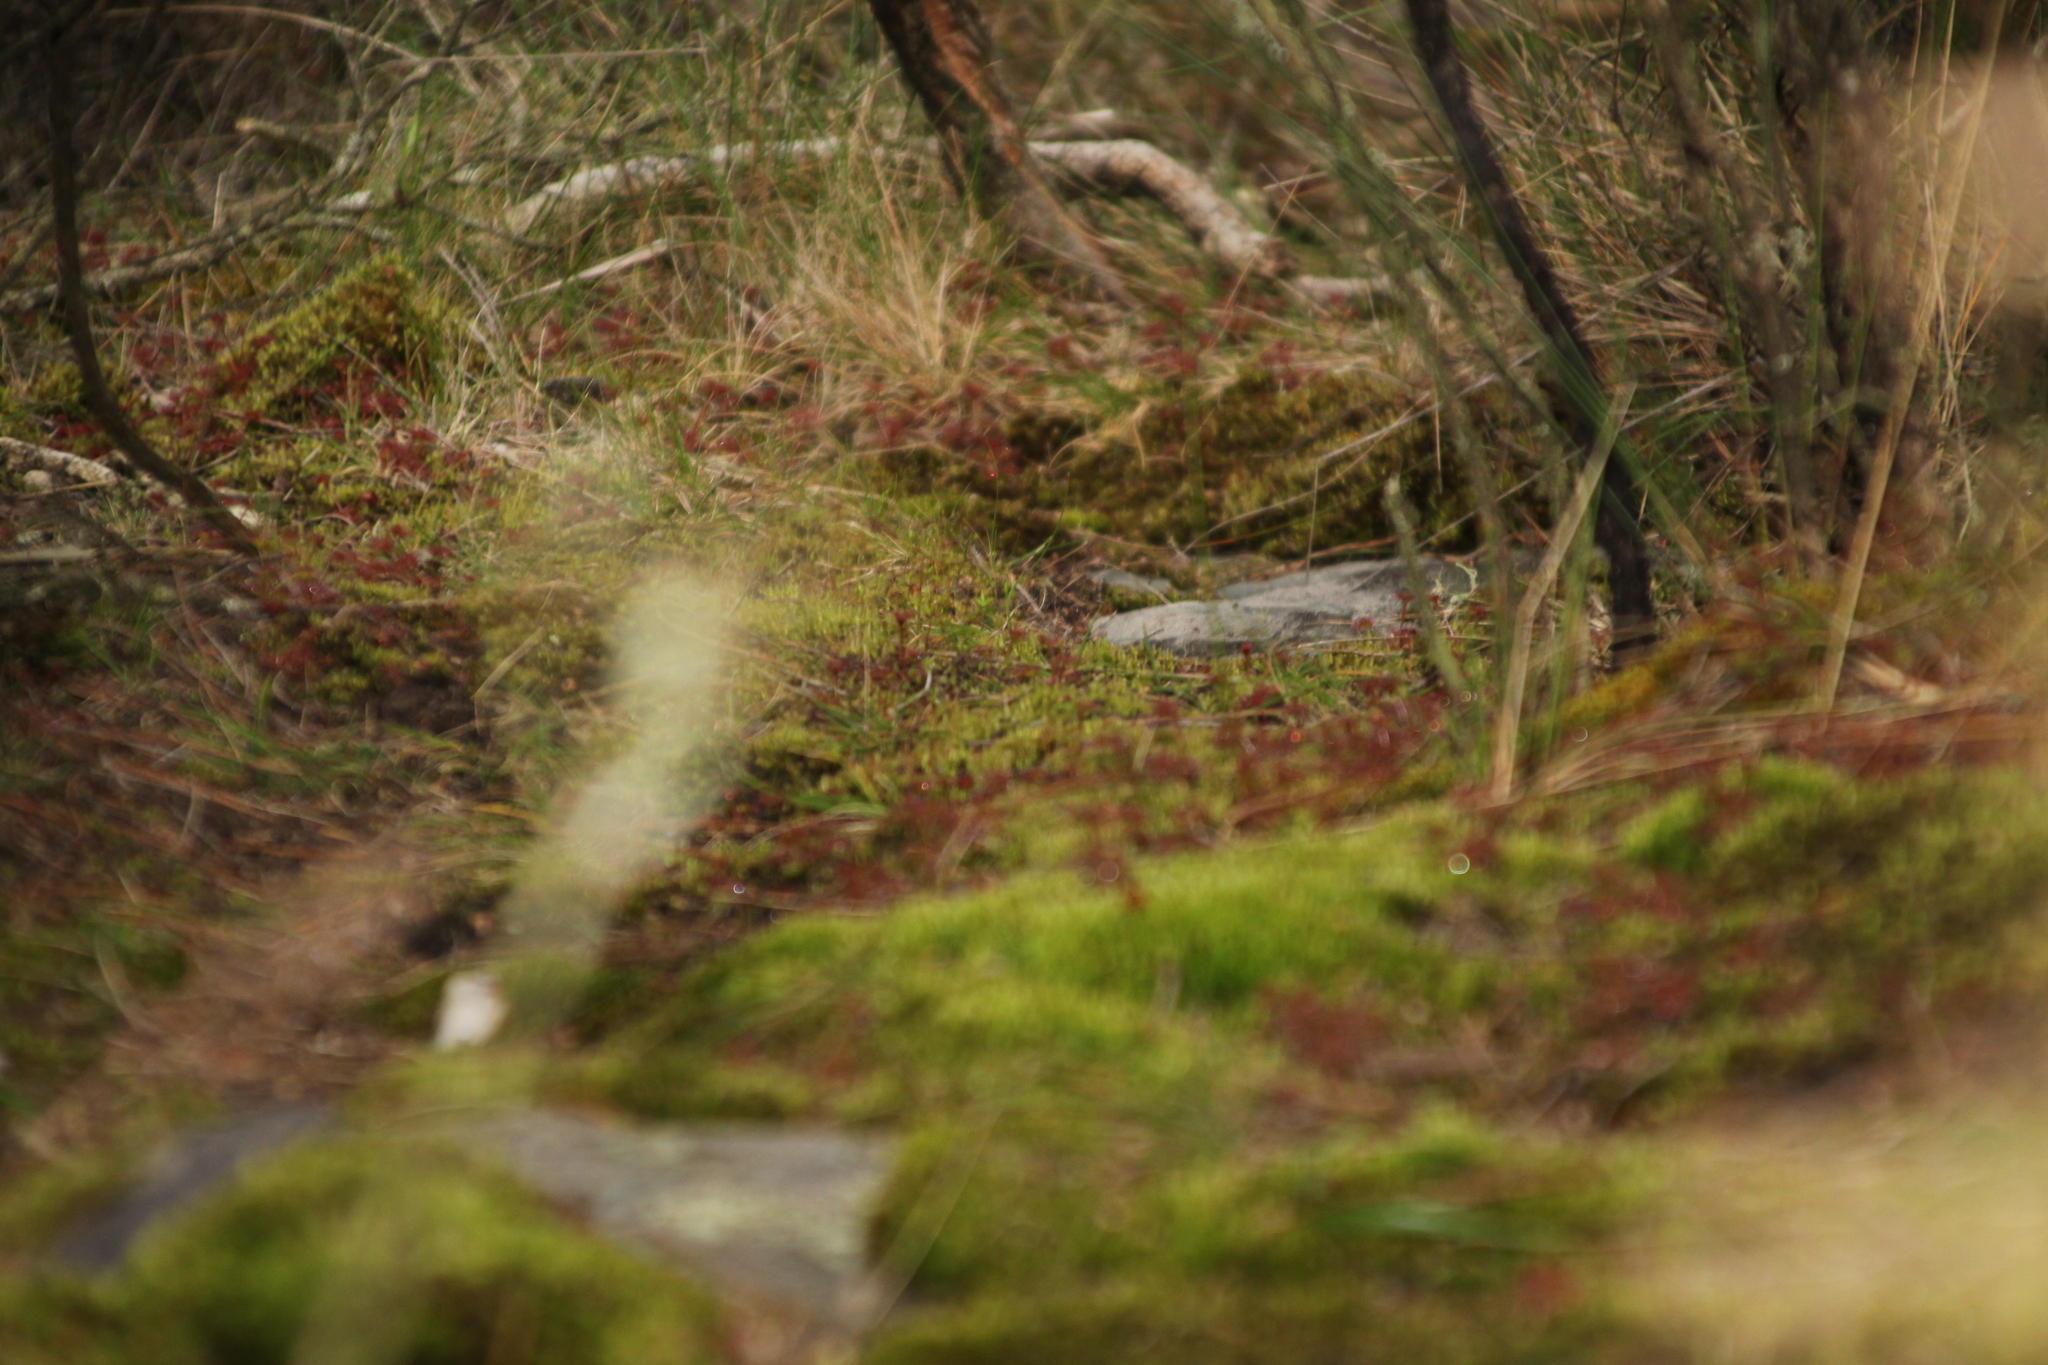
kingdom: Plantae
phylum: Tracheophyta
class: Magnoliopsida
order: Caryophyllales
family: Droseraceae
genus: Drosera
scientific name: Drosera monticola
